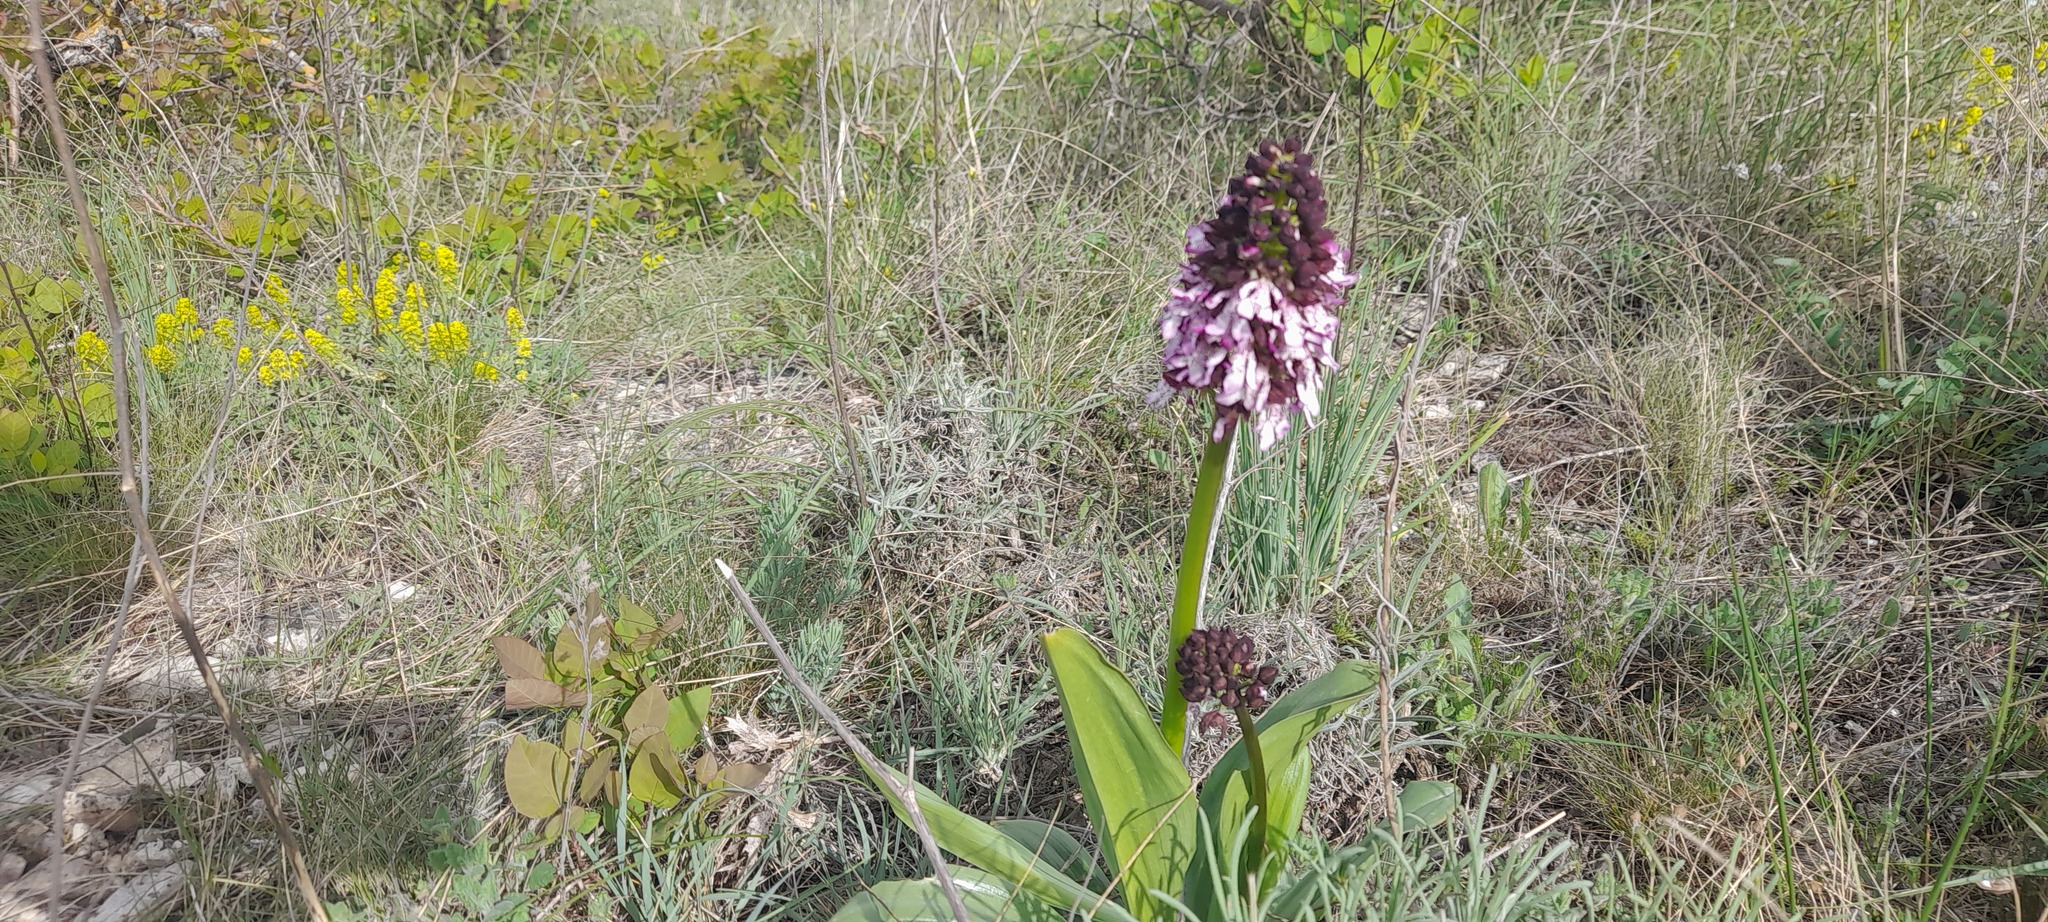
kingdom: Plantae
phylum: Tracheophyta
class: Liliopsida
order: Asparagales
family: Orchidaceae
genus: Orchis
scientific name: Orchis purpurea
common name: Lady orchid
